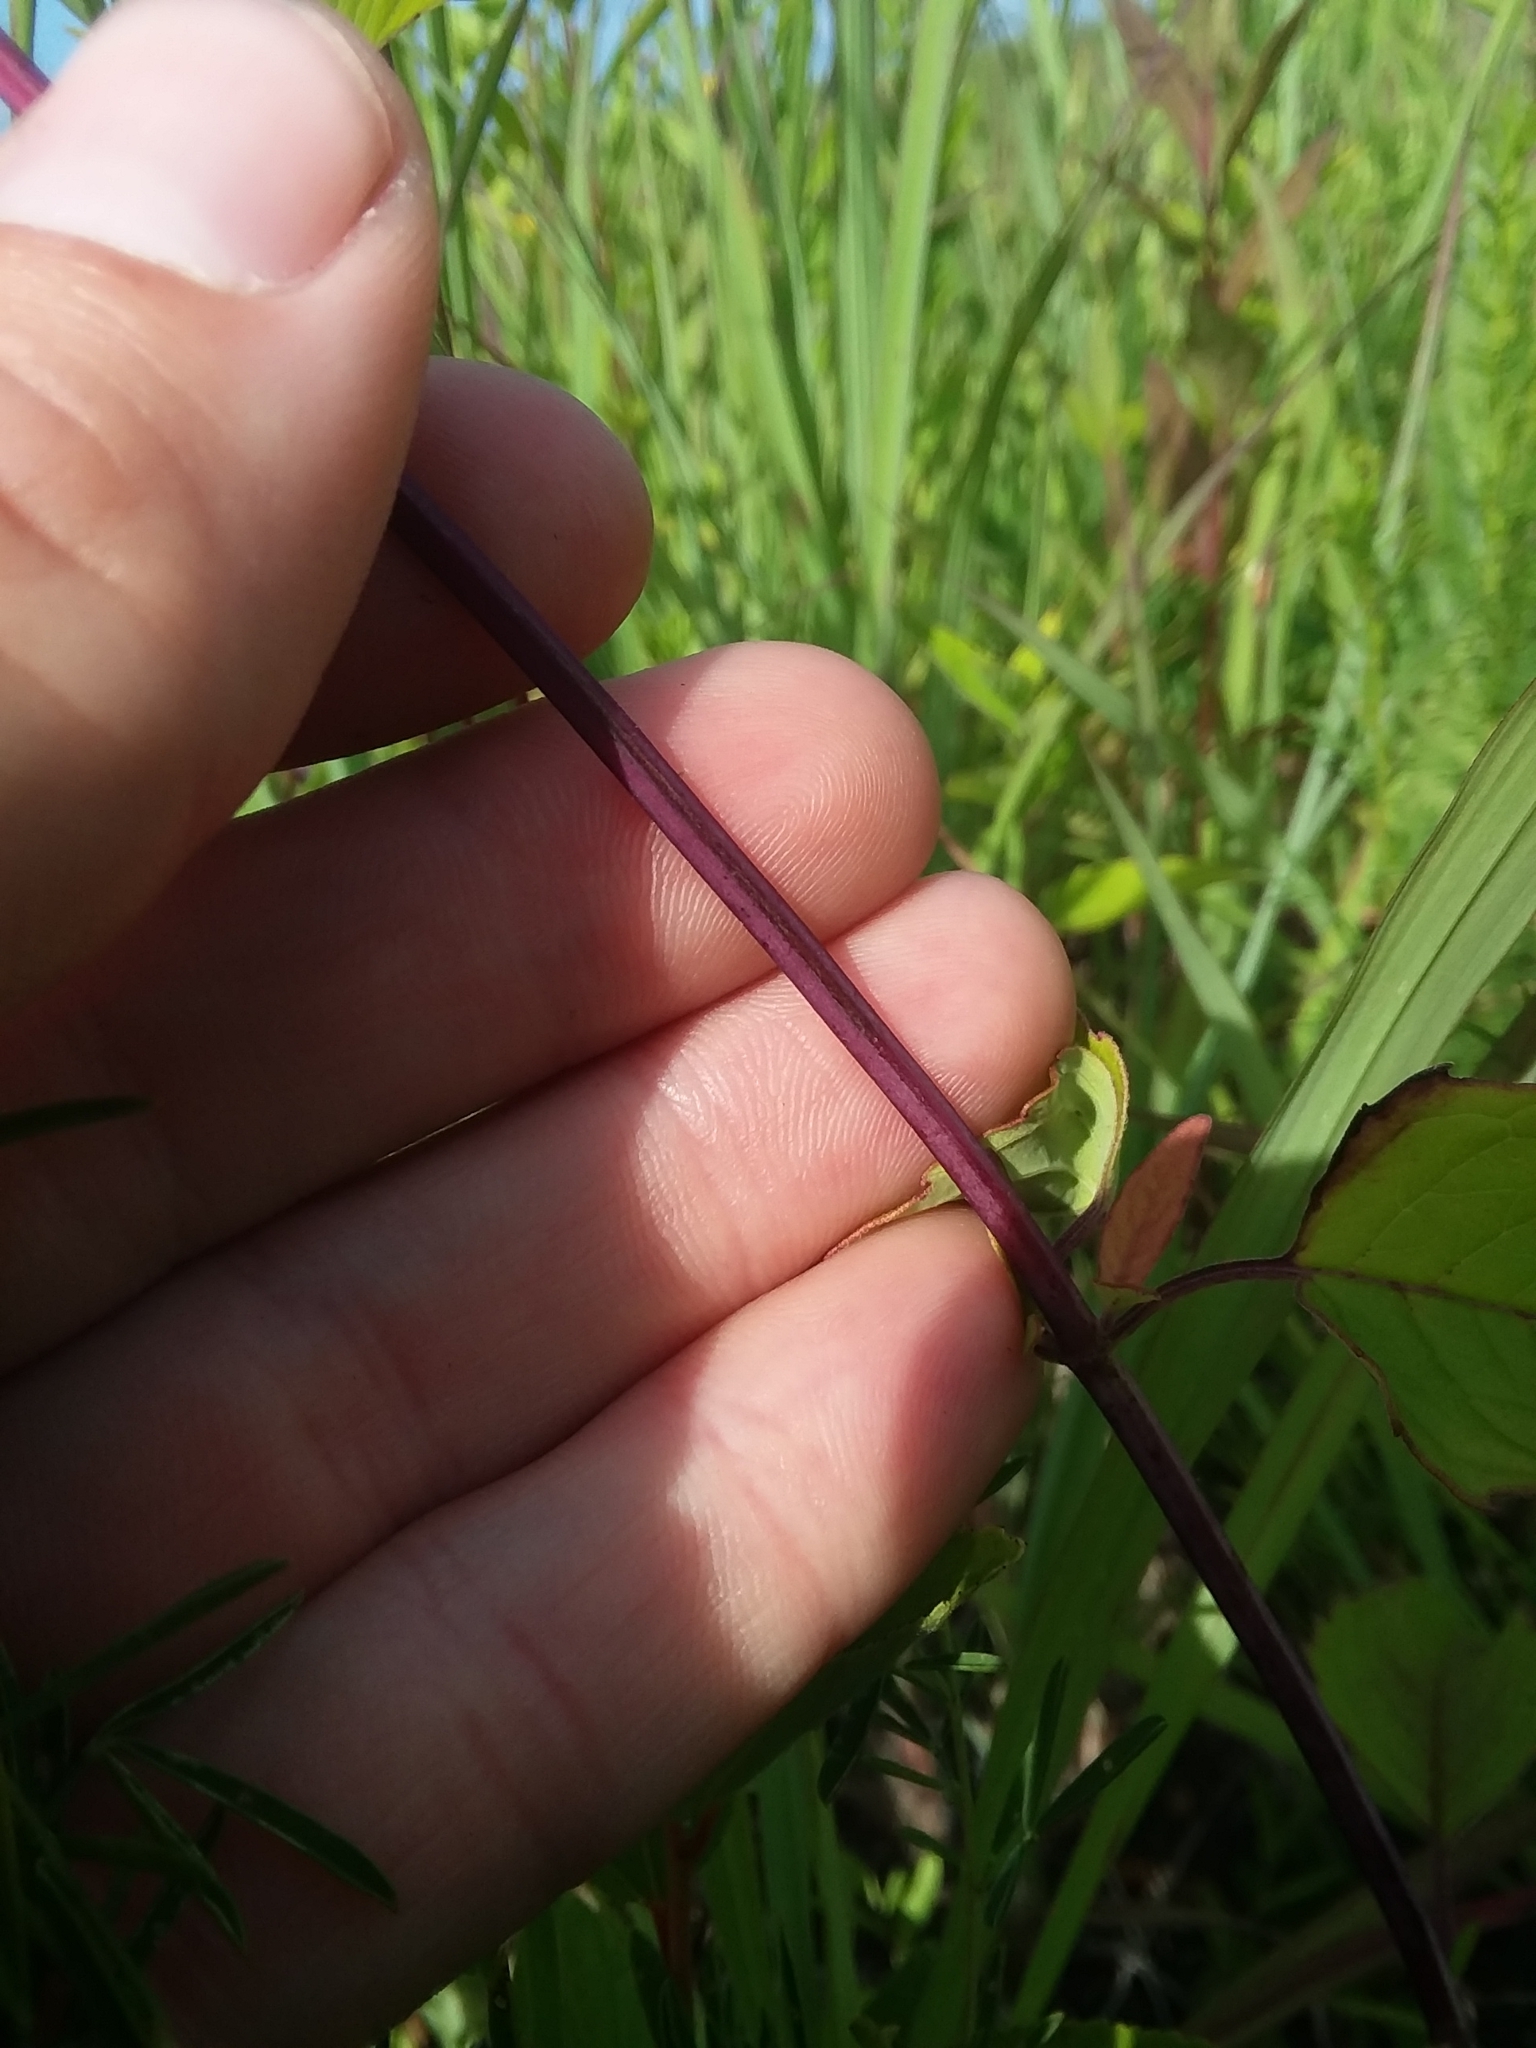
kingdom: Plantae
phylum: Tracheophyta
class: Magnoliopsida
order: Lamiales
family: Lamiaceae
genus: Monarda
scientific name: Monarda fistulosa
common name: Purple beebalm
